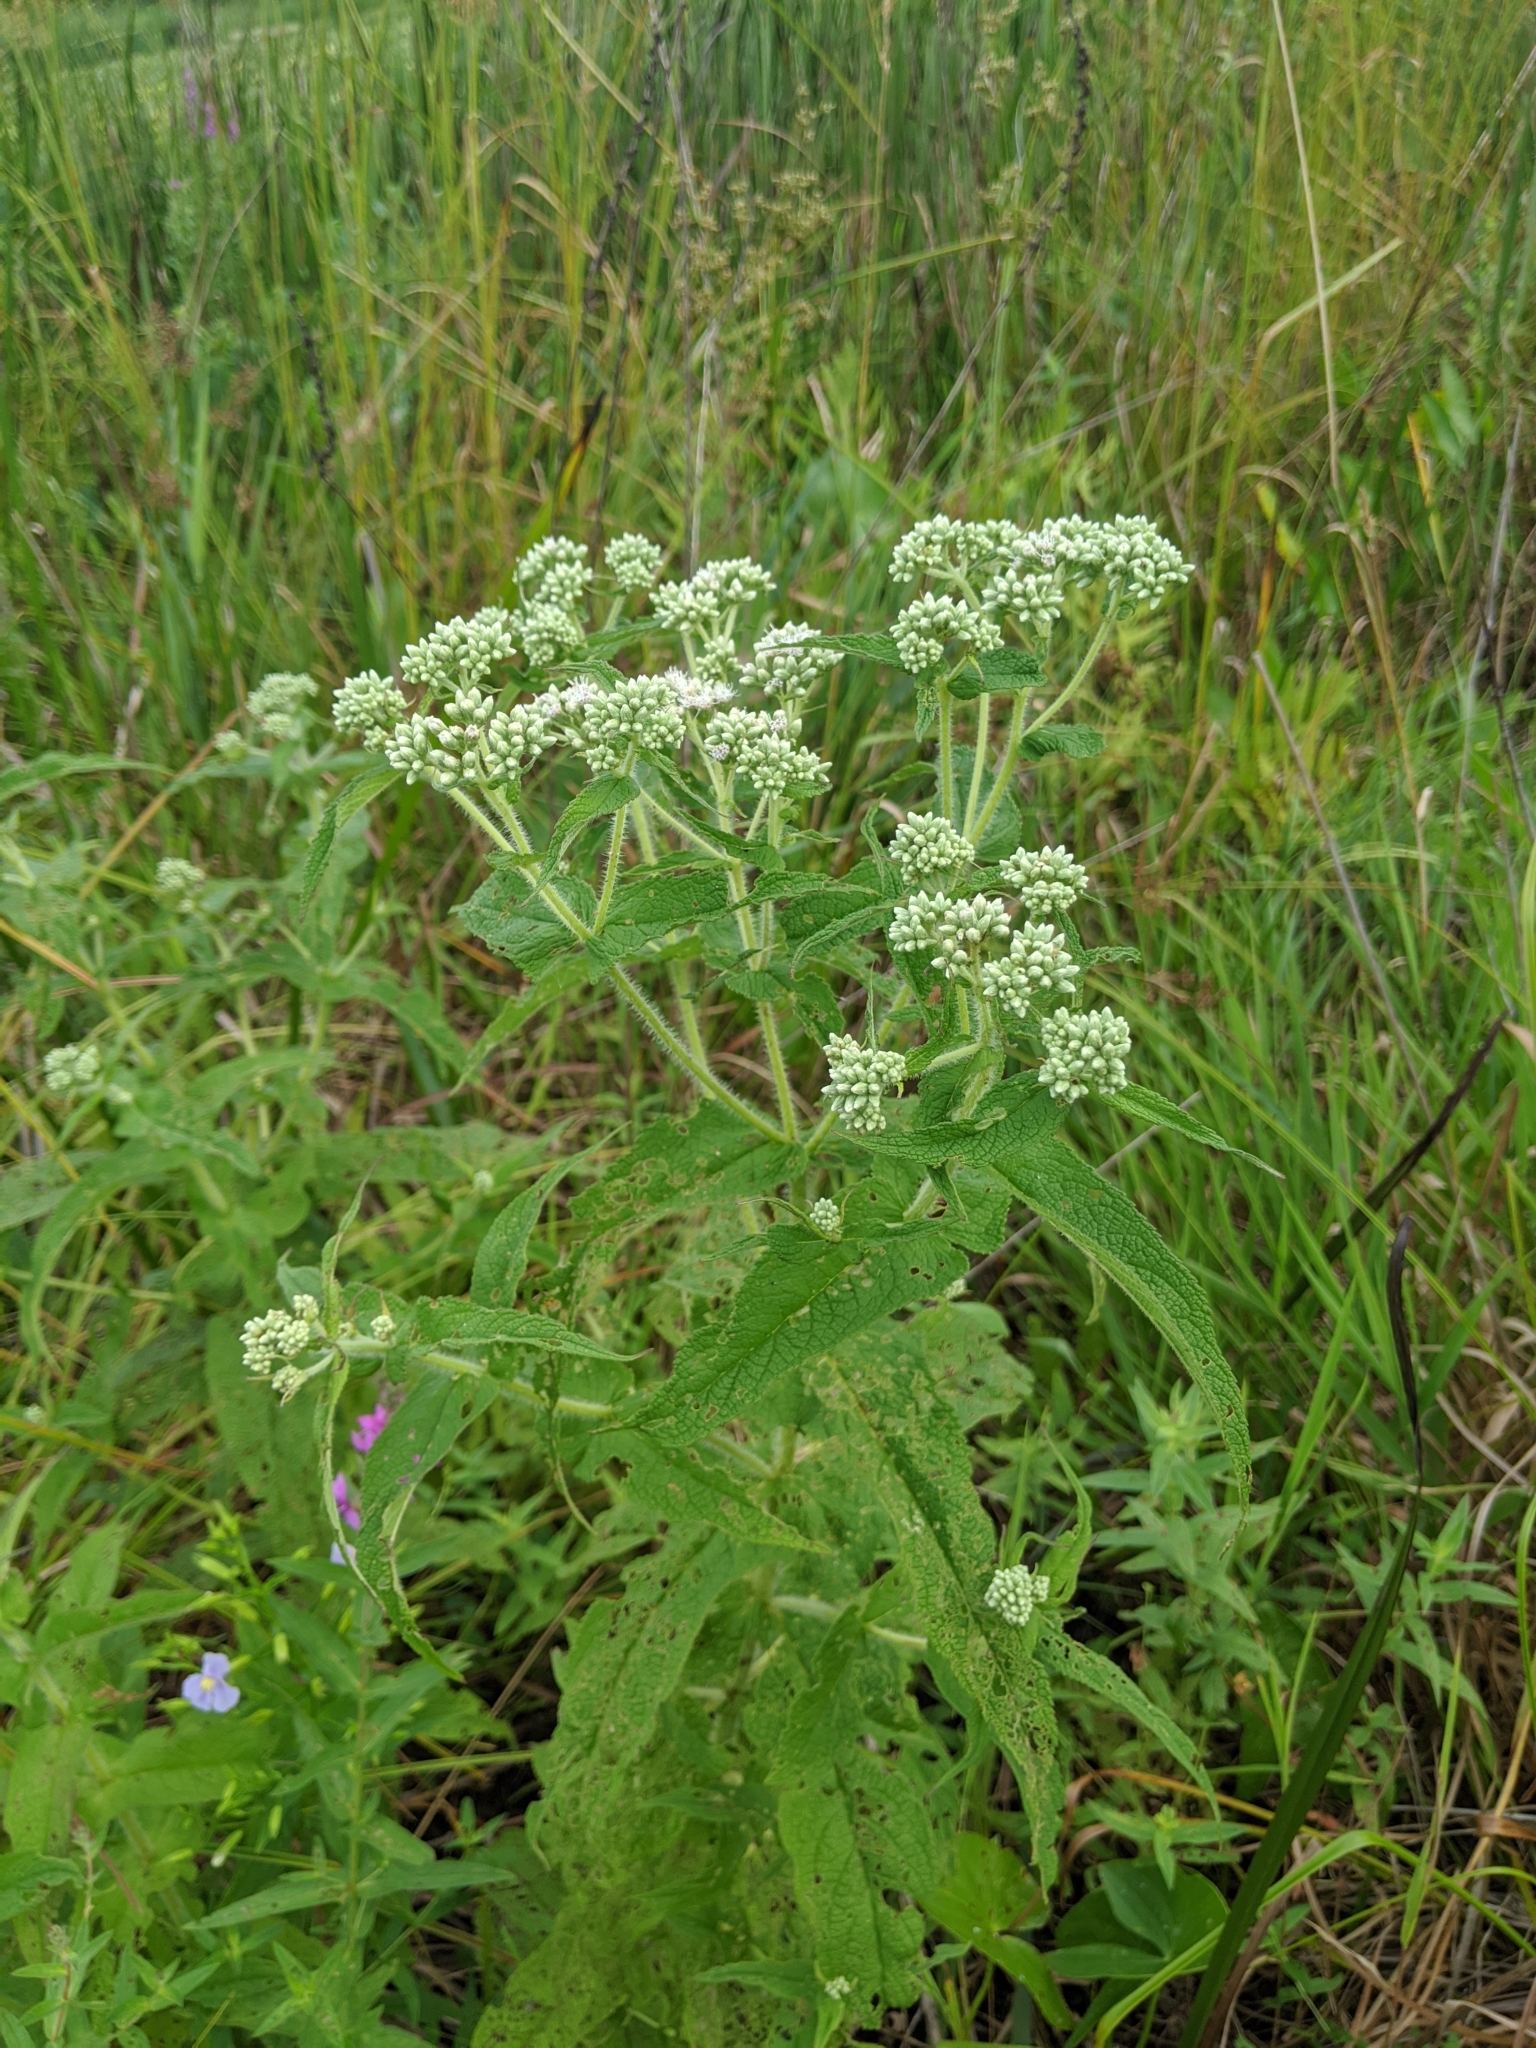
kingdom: Plantae
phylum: Tracheophyta
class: Magnoliopsida
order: Asterales
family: Asteraceae
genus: Eupatorium
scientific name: Eupatorium perfoliatum
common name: Boneset
